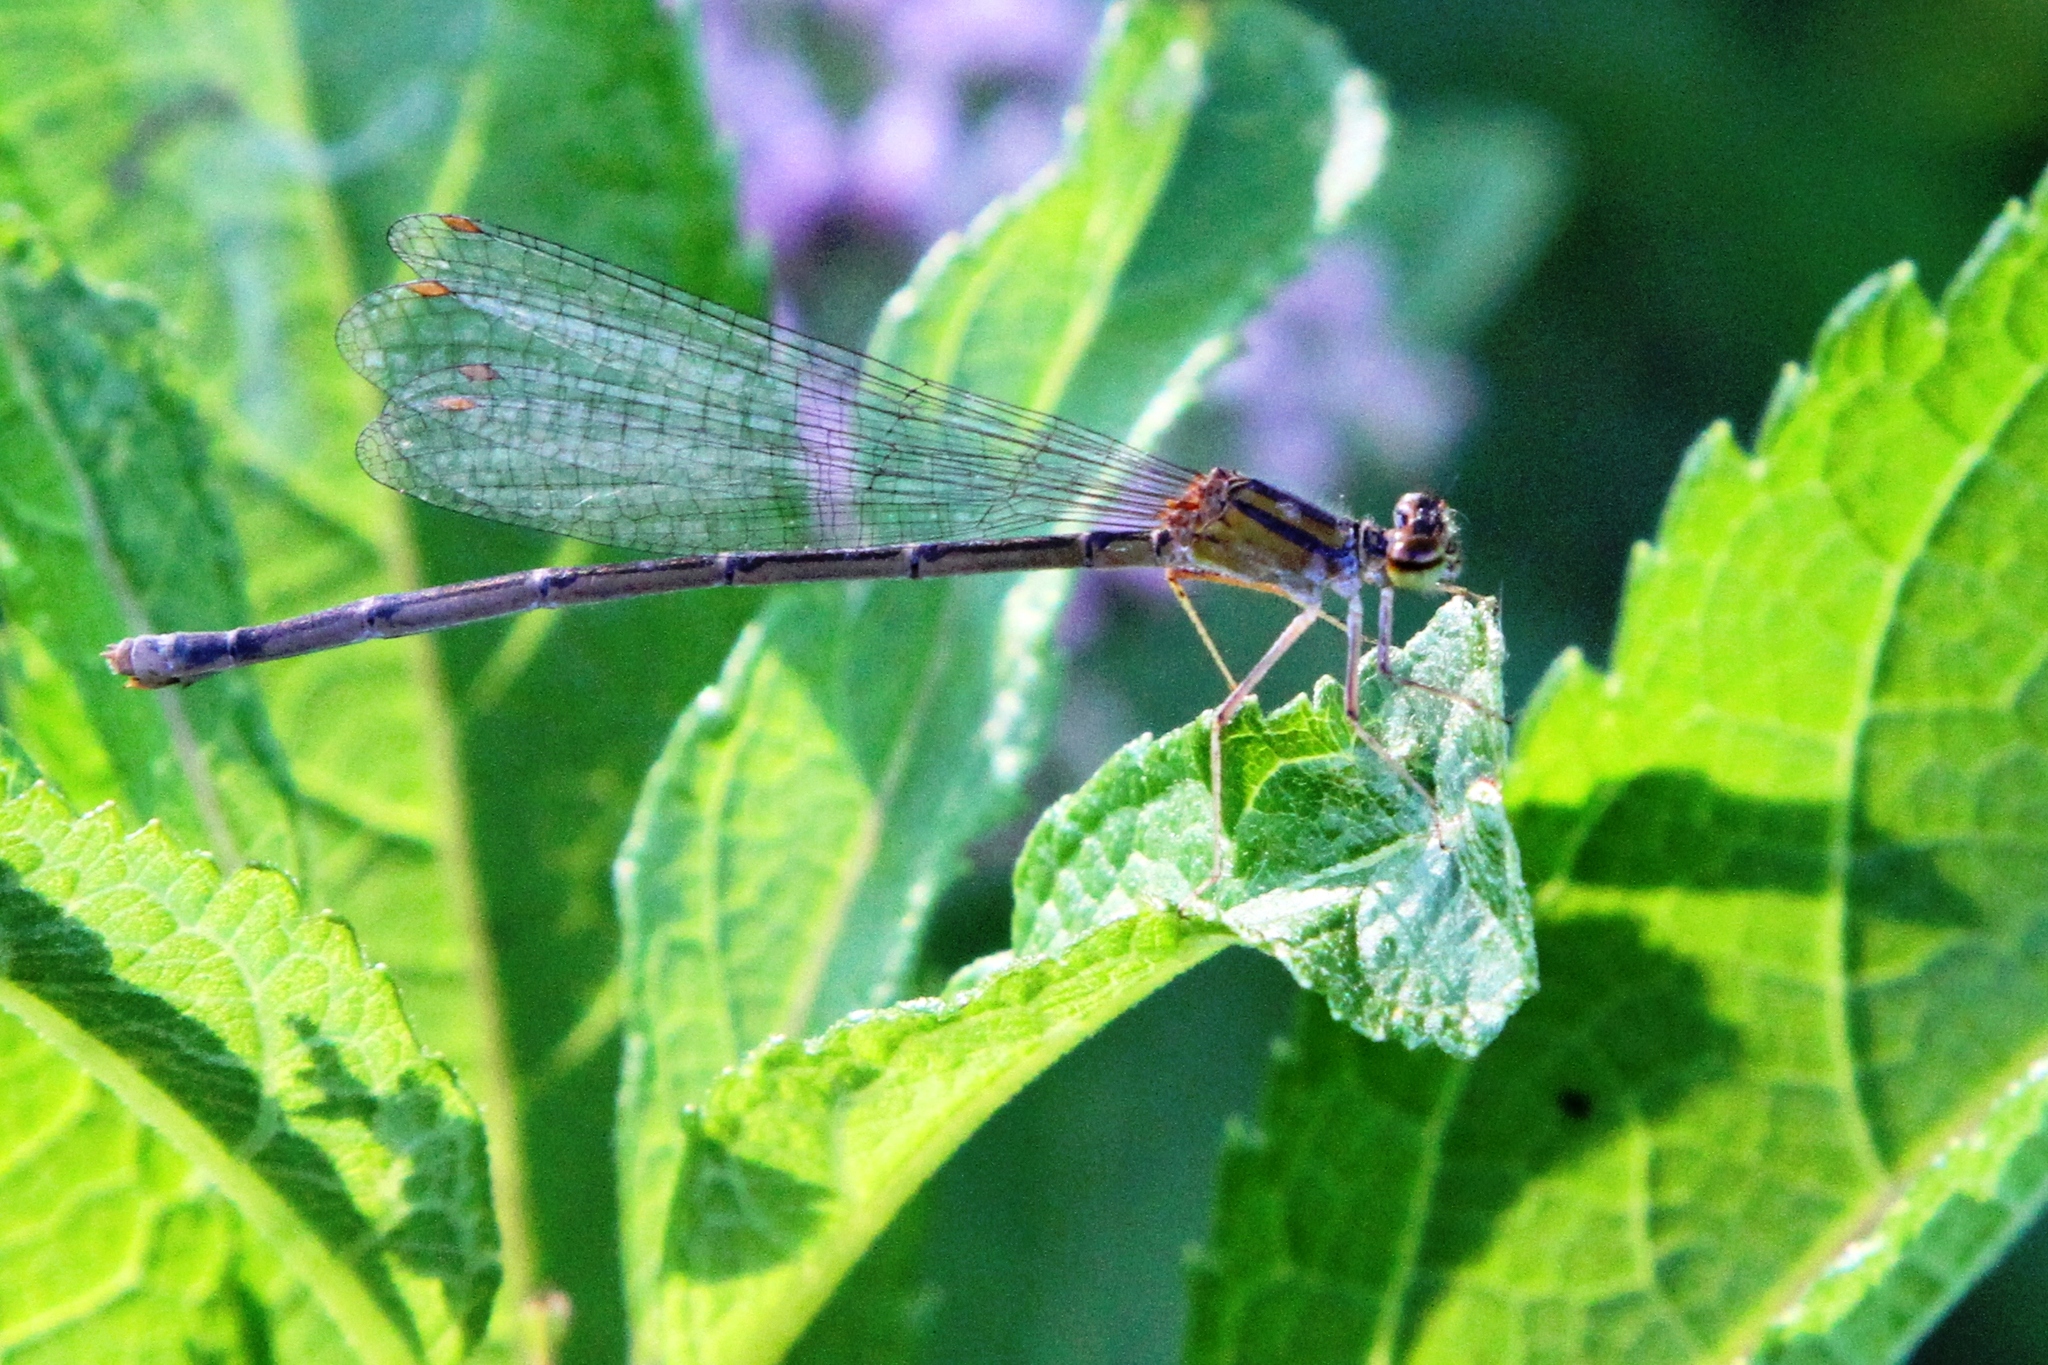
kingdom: Animalia
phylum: Arthropoda
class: Insecta
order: Odonata
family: Coenagrionidae
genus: Enallagma
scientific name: Enallagma signatum
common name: Orange bluet
